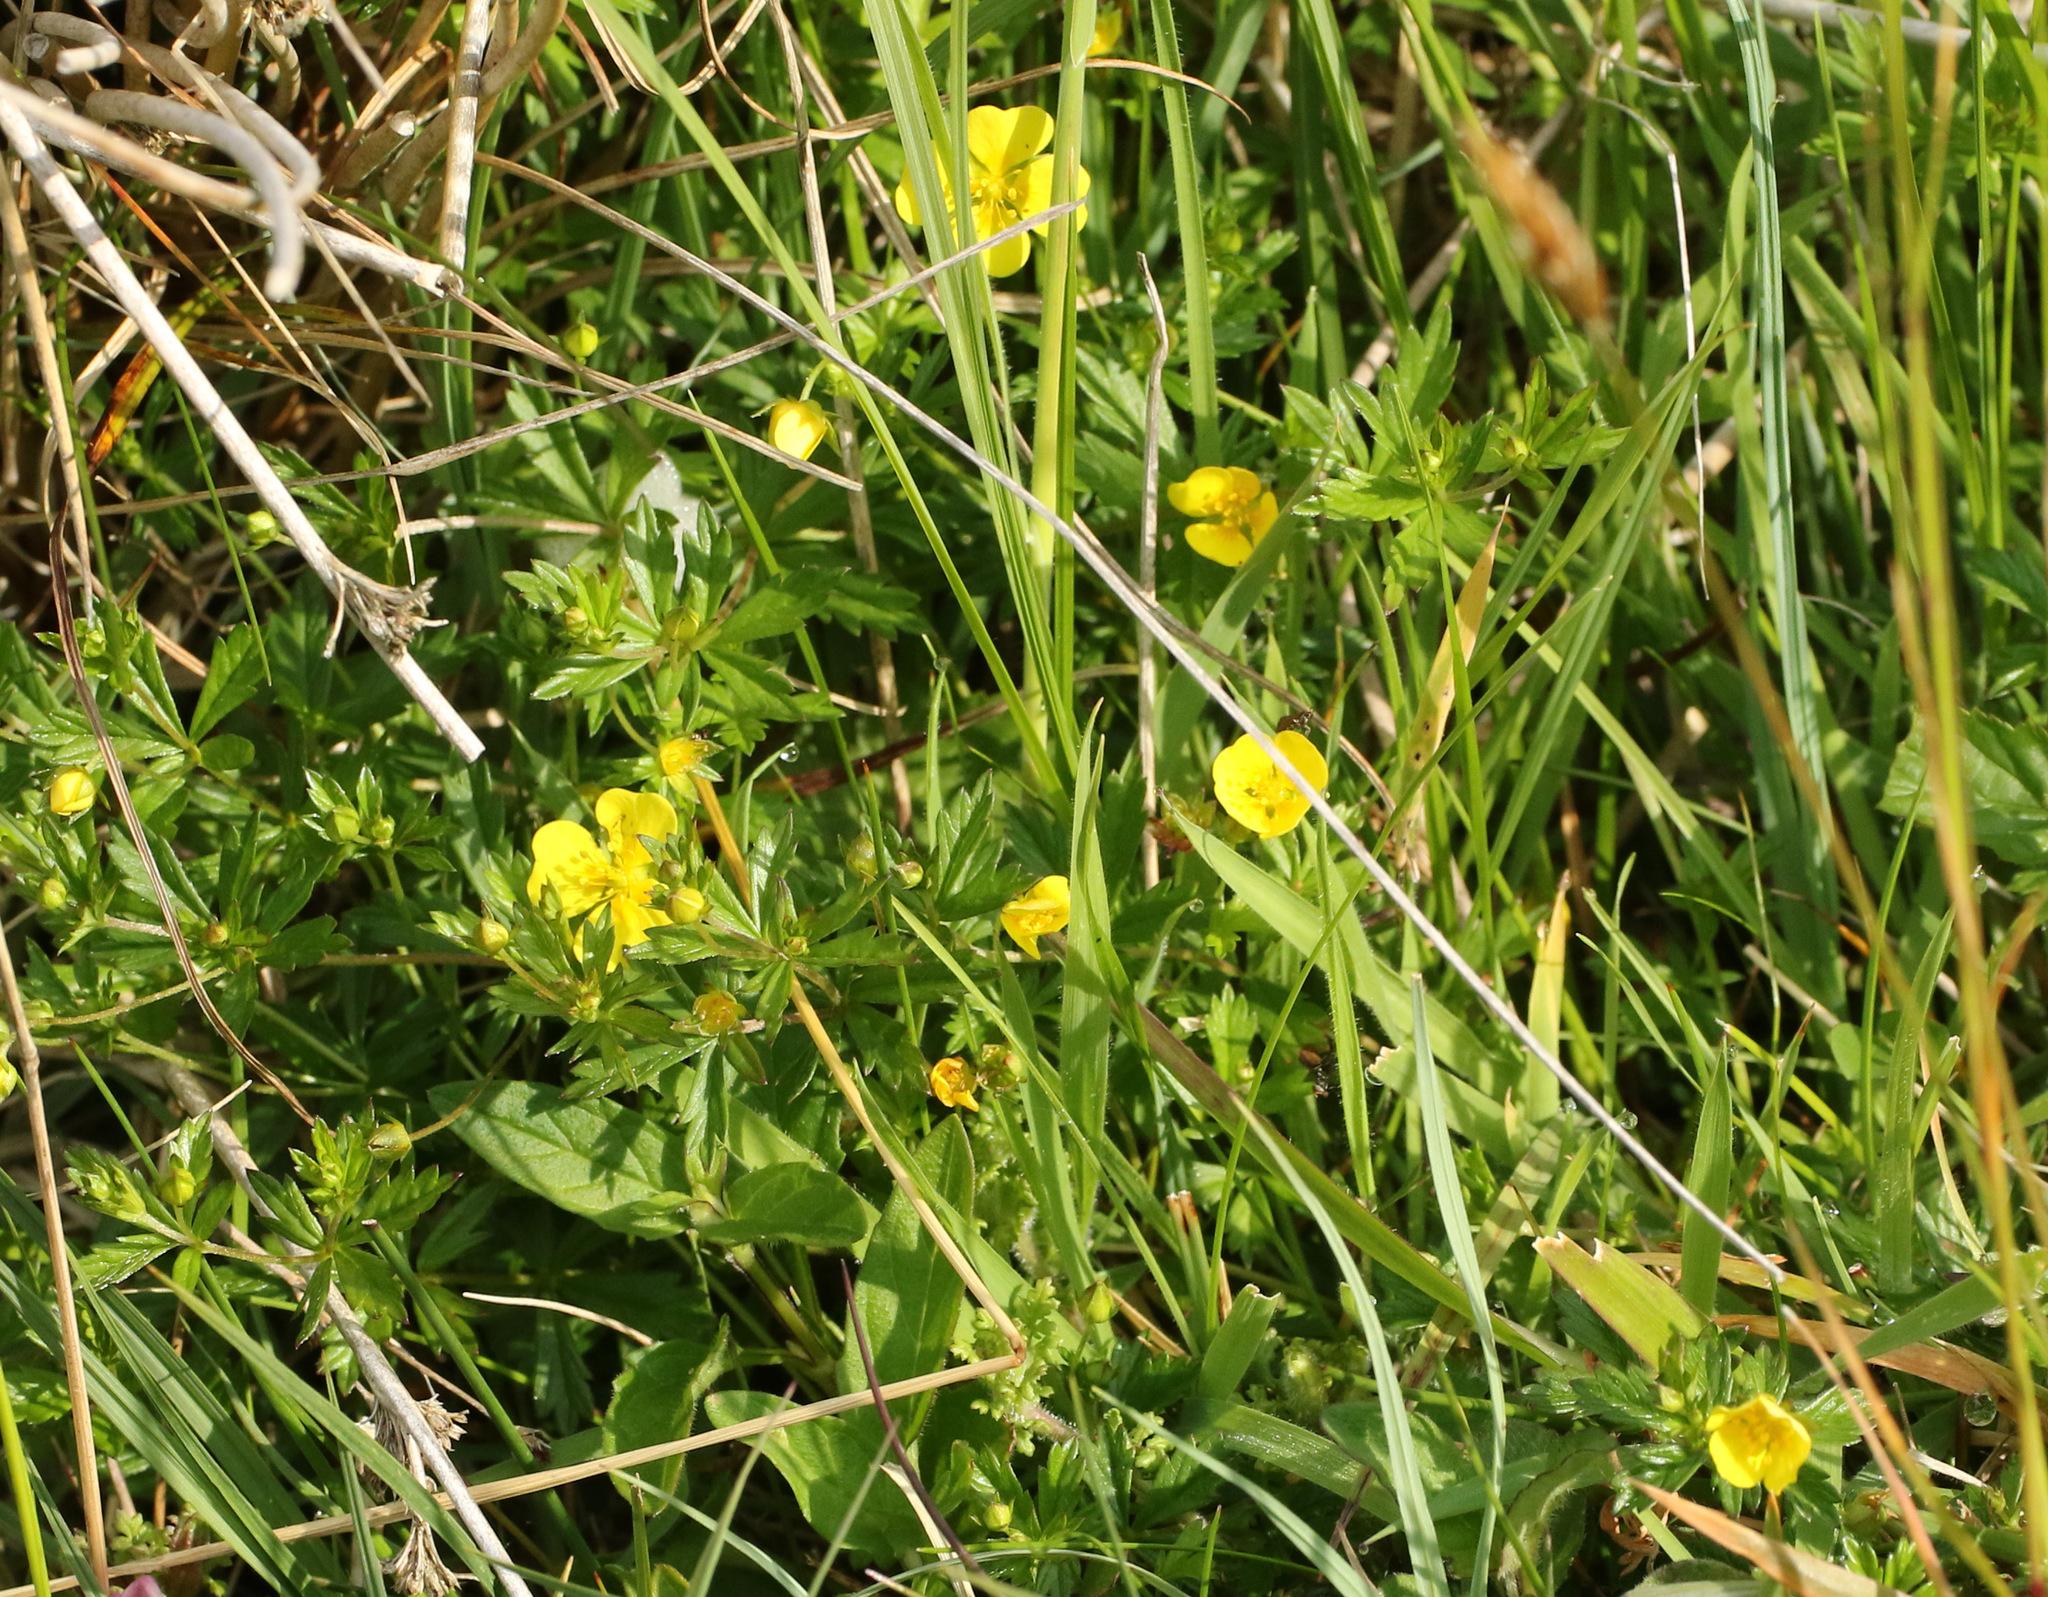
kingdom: Plantae
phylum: Tracheophyta
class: Magnoliopsida
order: Rosales
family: Rosaceae
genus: Potentilla
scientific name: Potentilla erecta
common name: Tormentil
